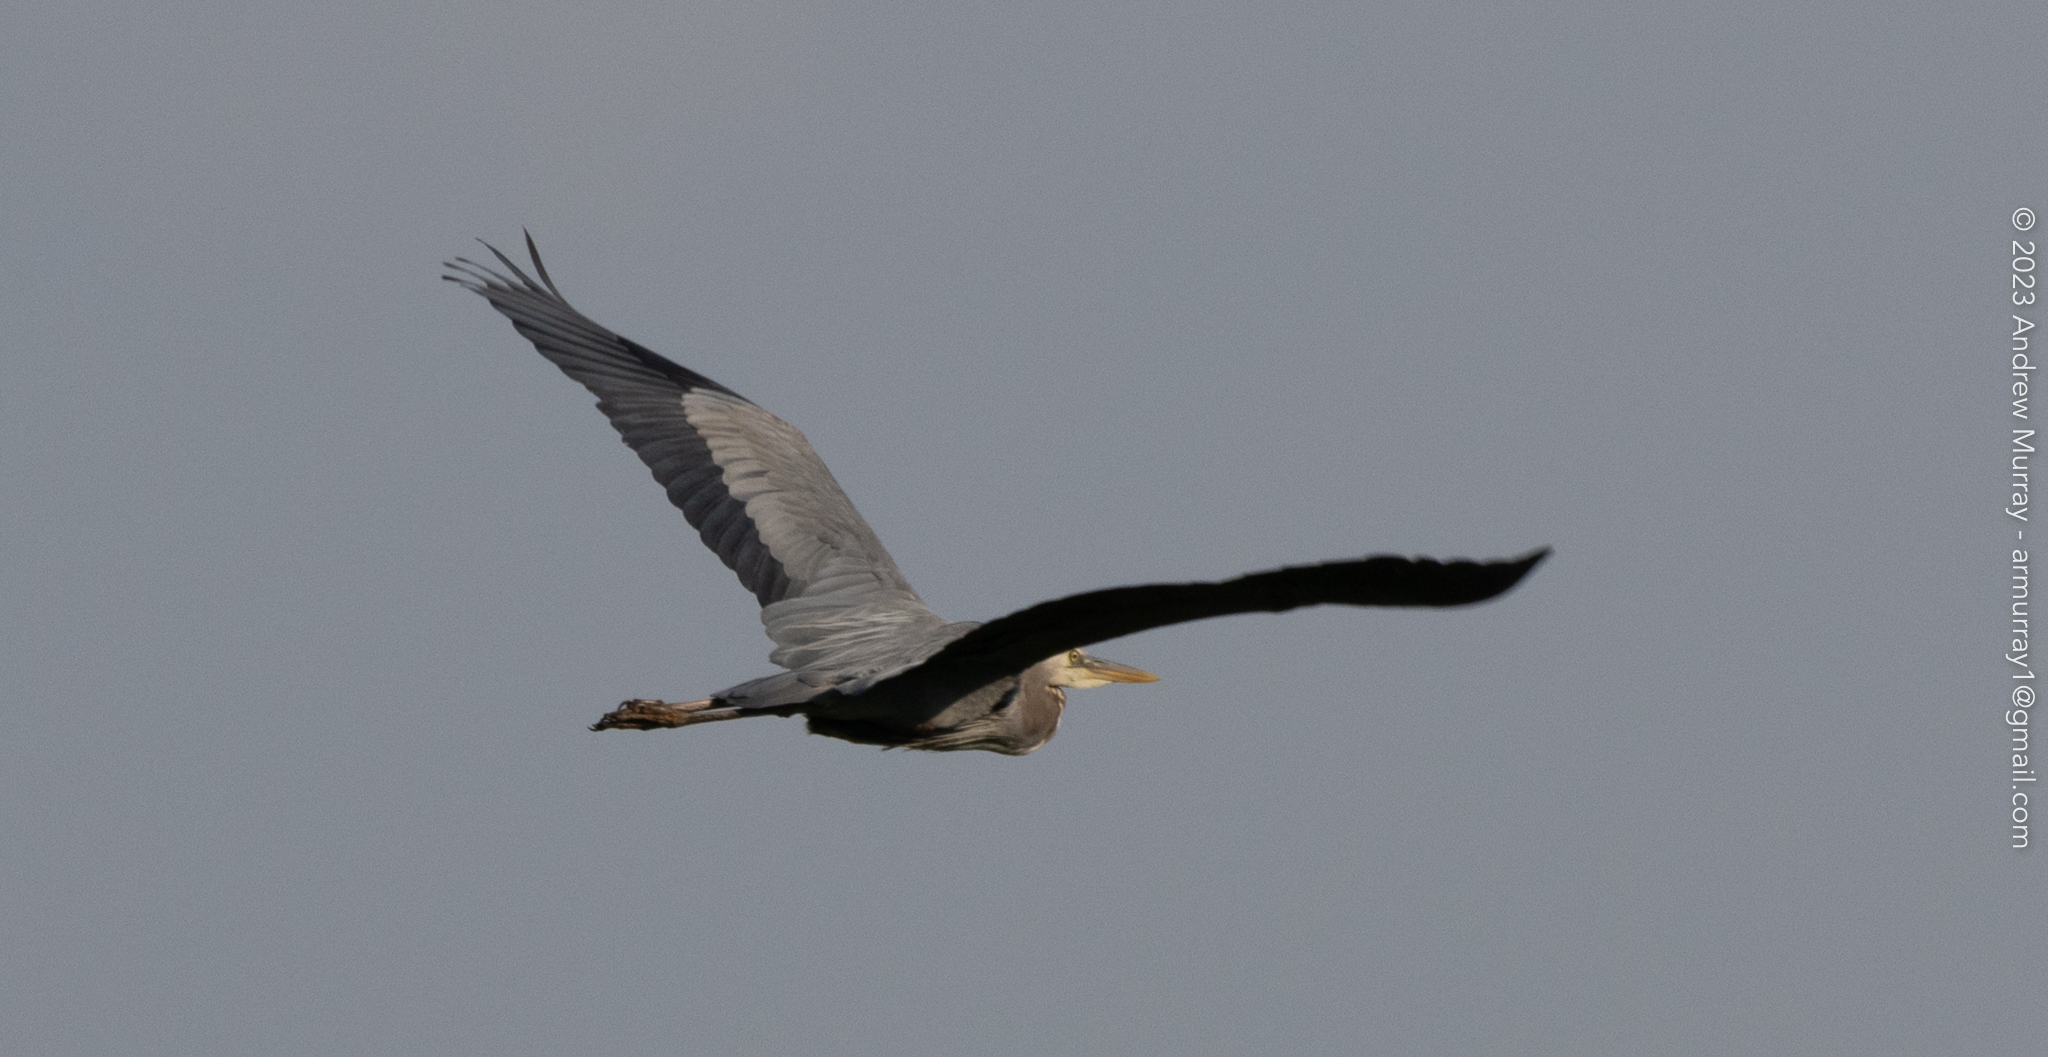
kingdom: Animalia
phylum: Chordata
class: Aves
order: Pelecaniformes
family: Ardeidae
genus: Ardea
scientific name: Ardea herodias
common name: Great blue heron
